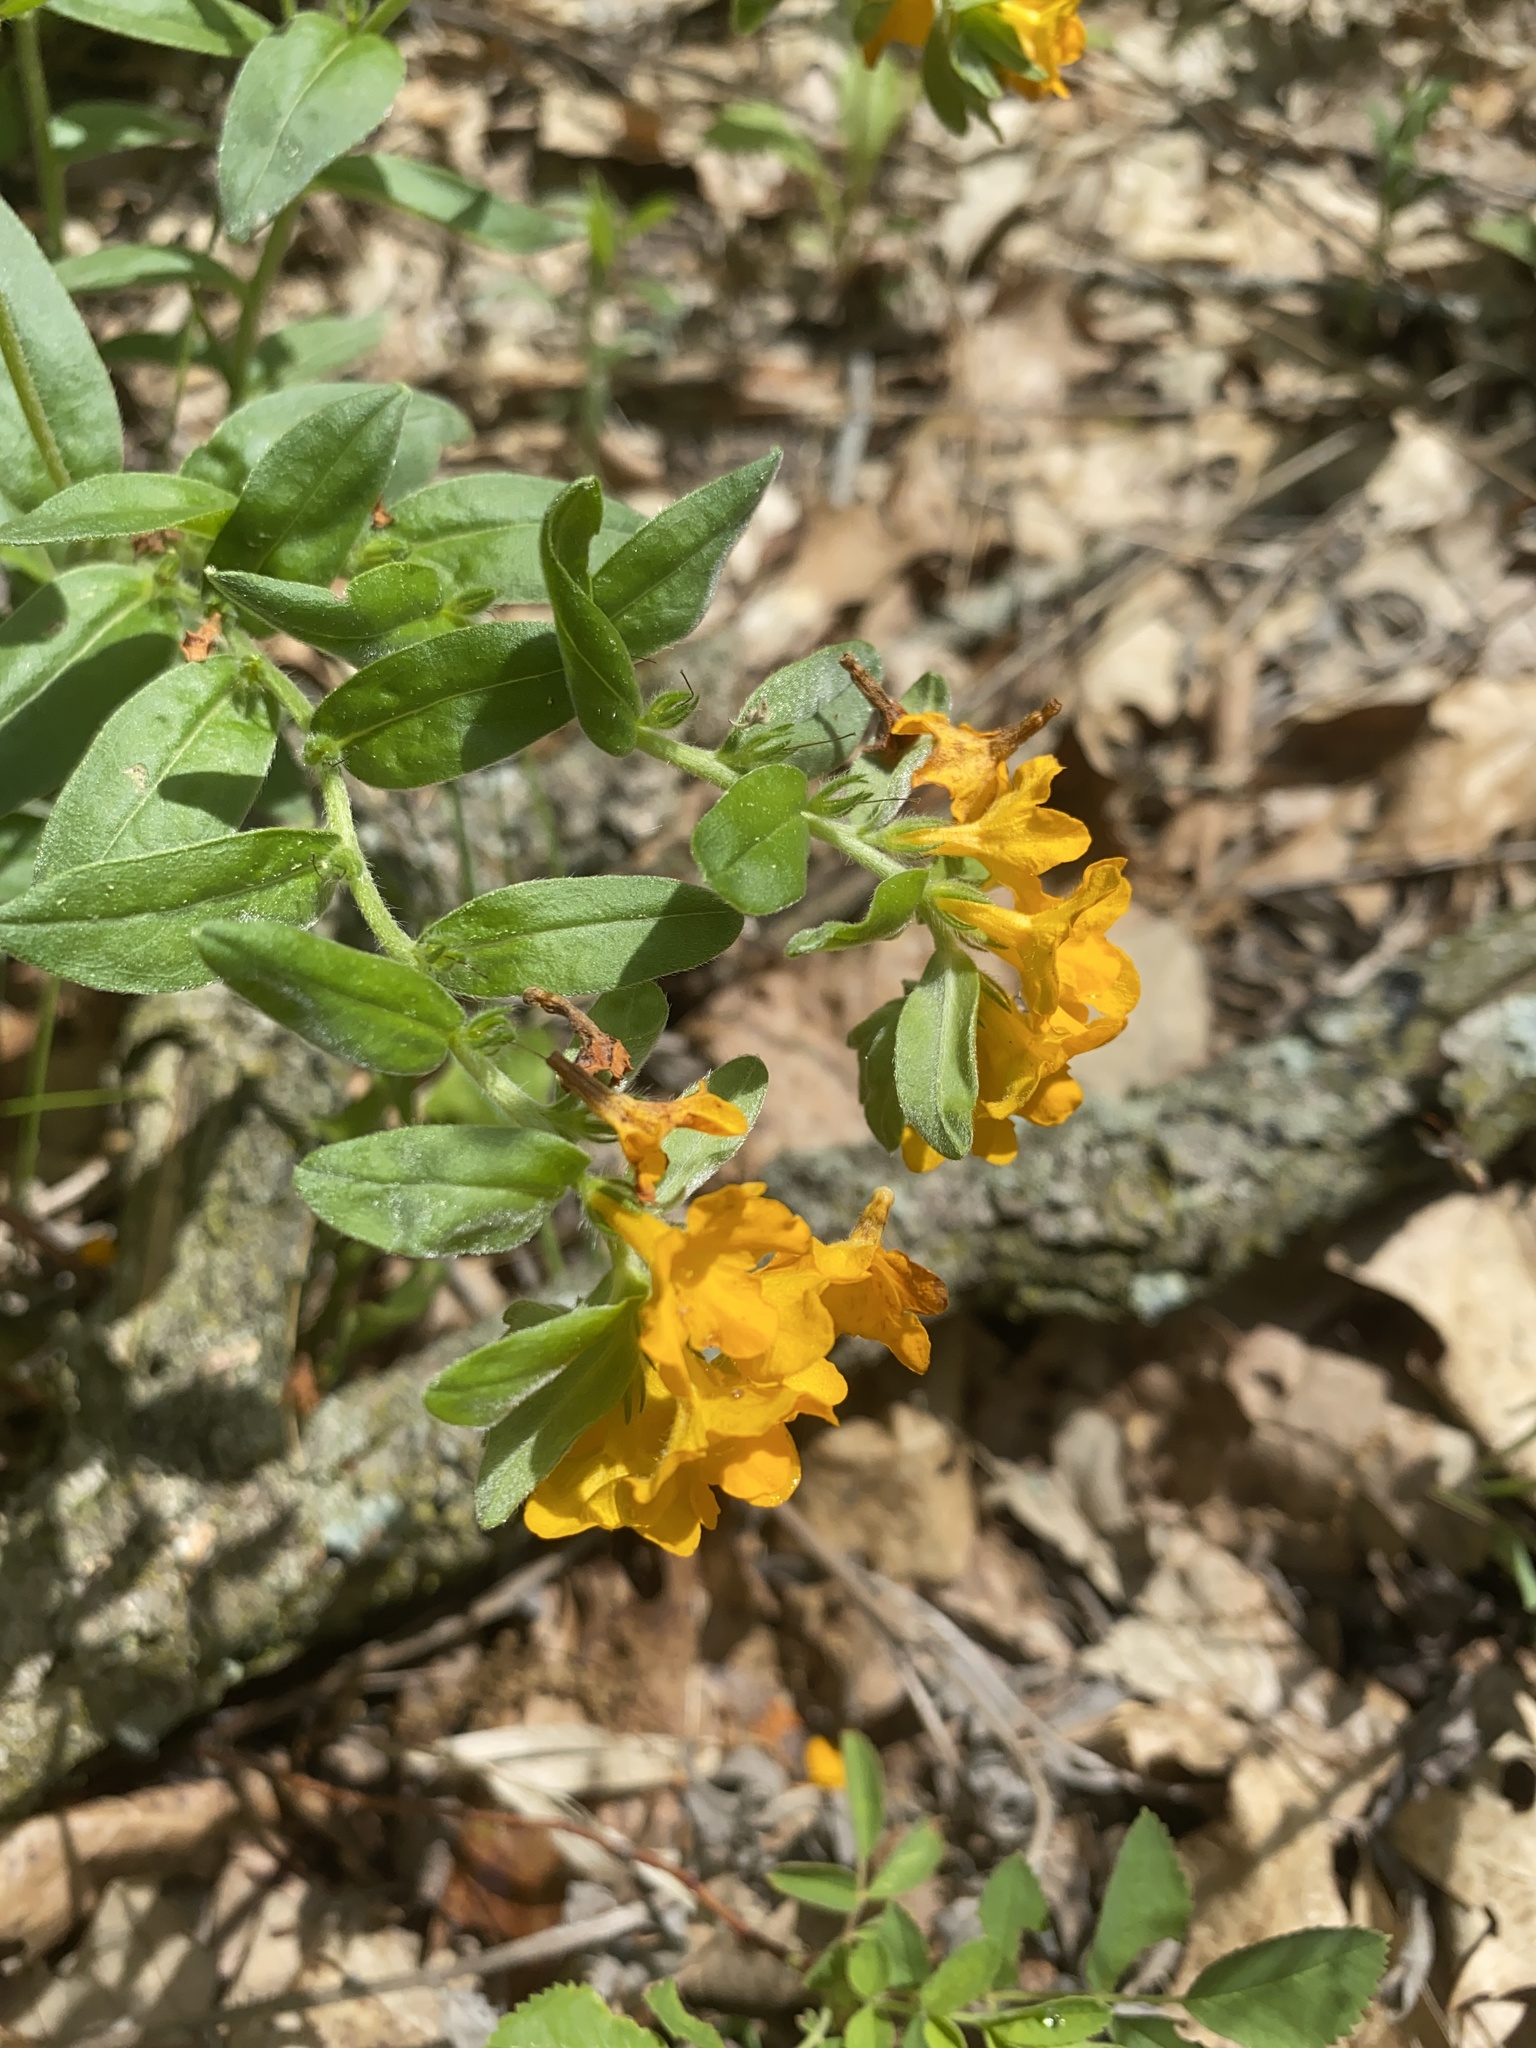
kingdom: Plantae
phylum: Tracheophyta
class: Magnoliopsida
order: Boraginales
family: Boraginaceae
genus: Lithospermum
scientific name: Lithospermum canescens
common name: Hoary puccoon
